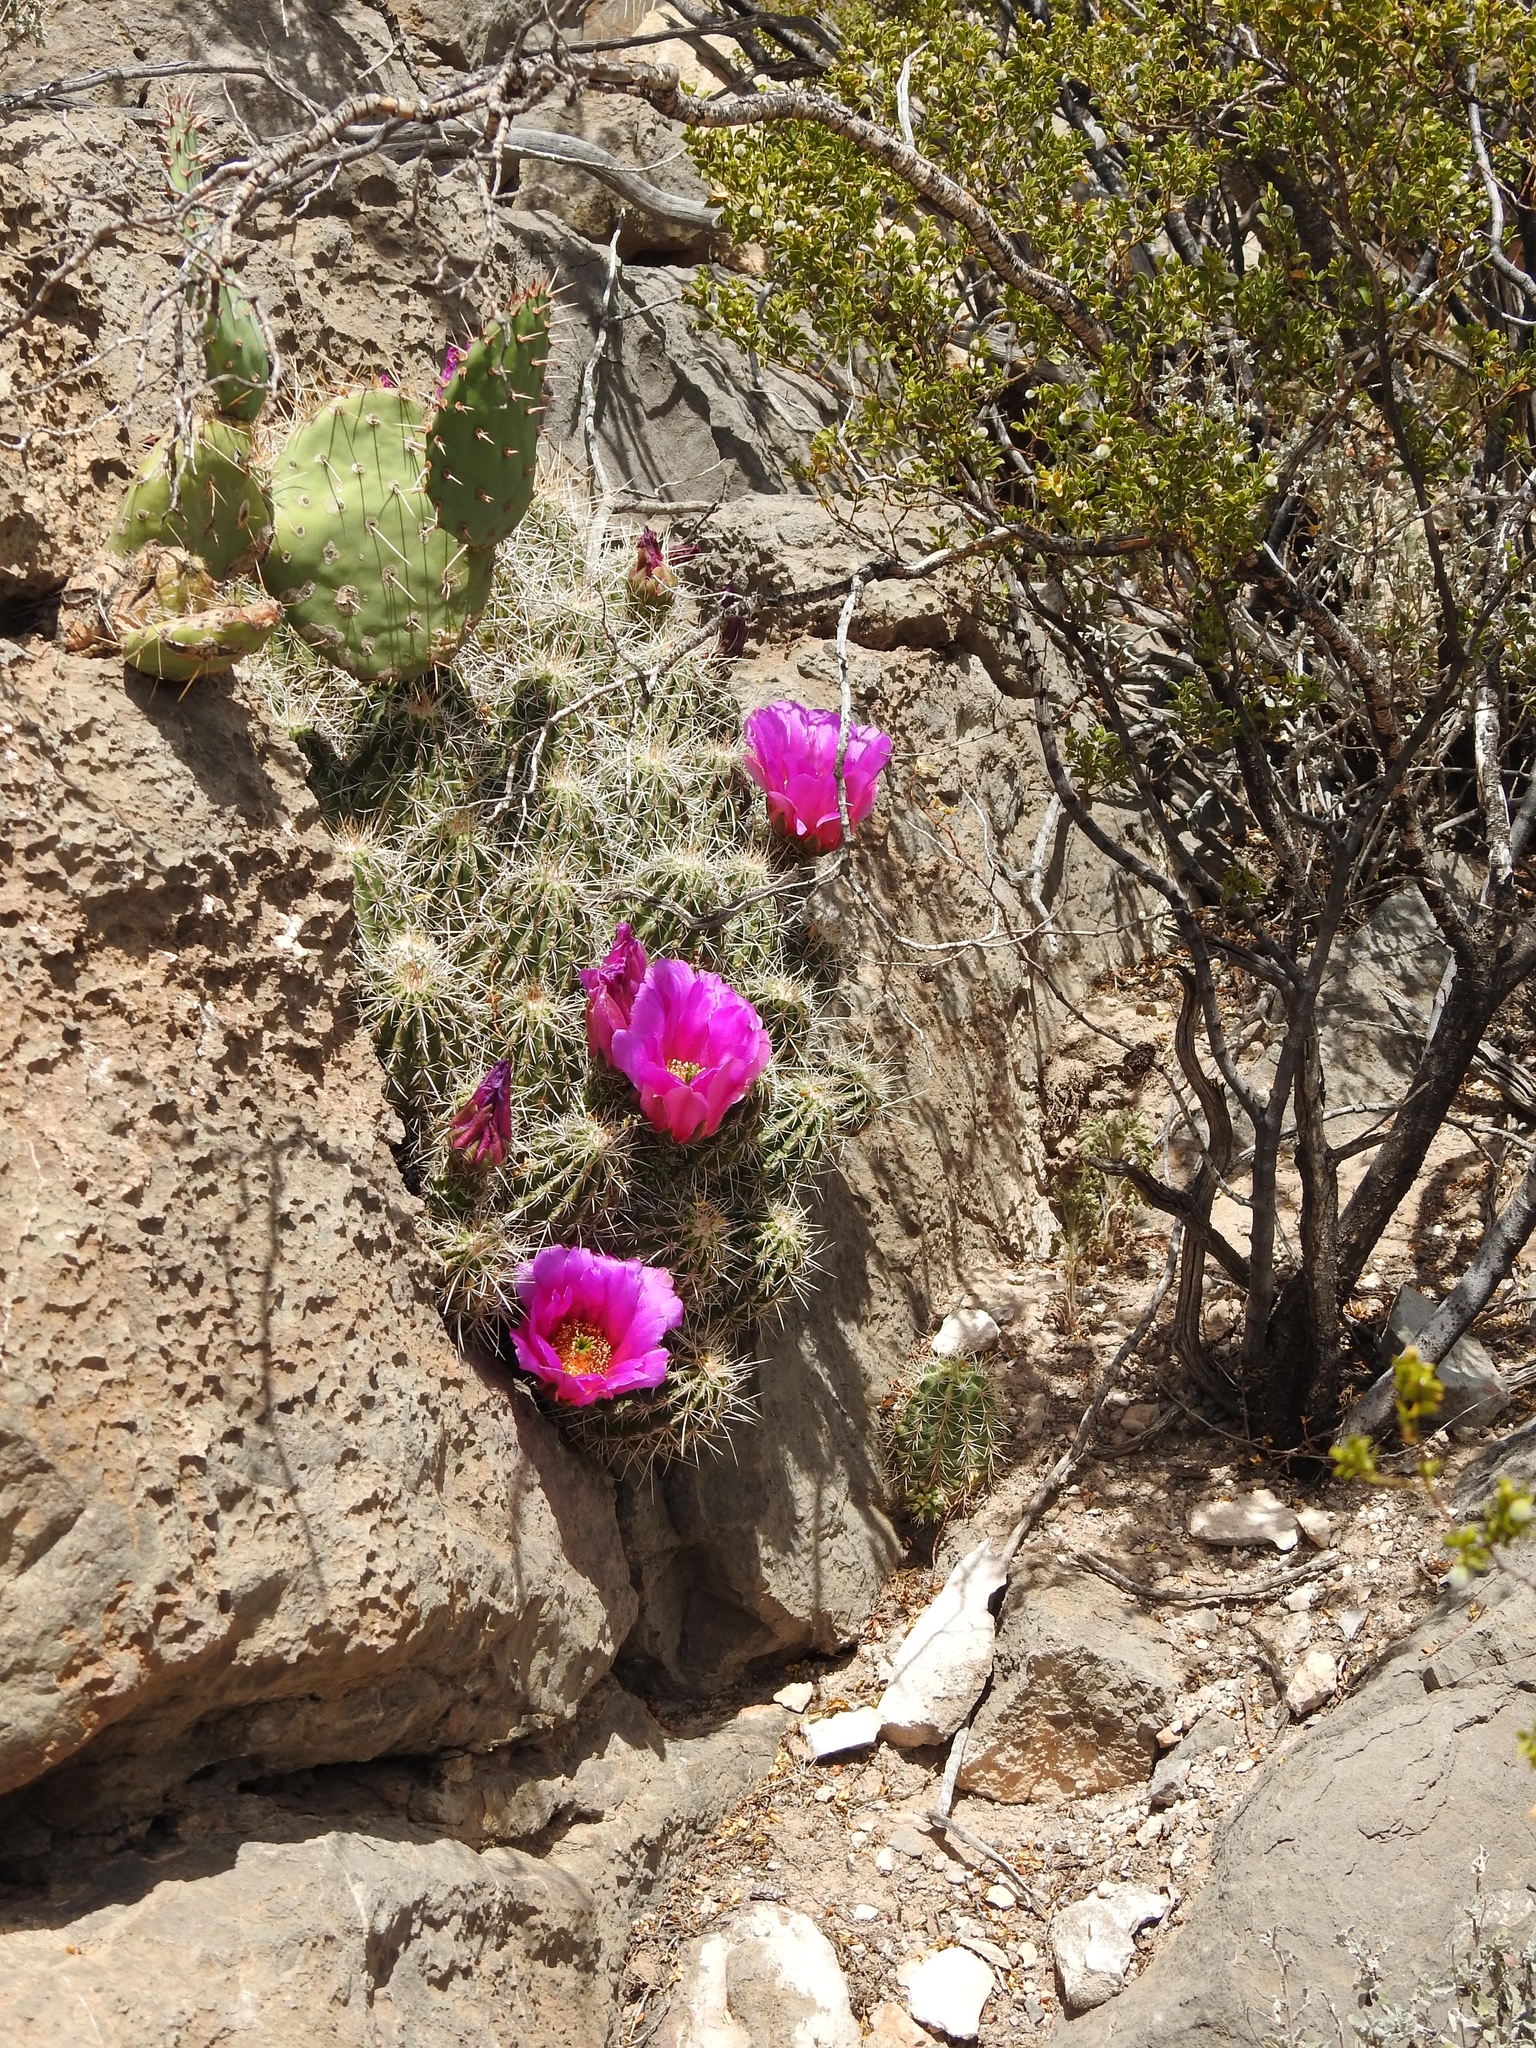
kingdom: Plantae
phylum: Tracheophyta
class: Magnoliopsida
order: Caryophyllales
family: Cactaceae
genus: Echinocereus
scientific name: Echinocereus stramineus
